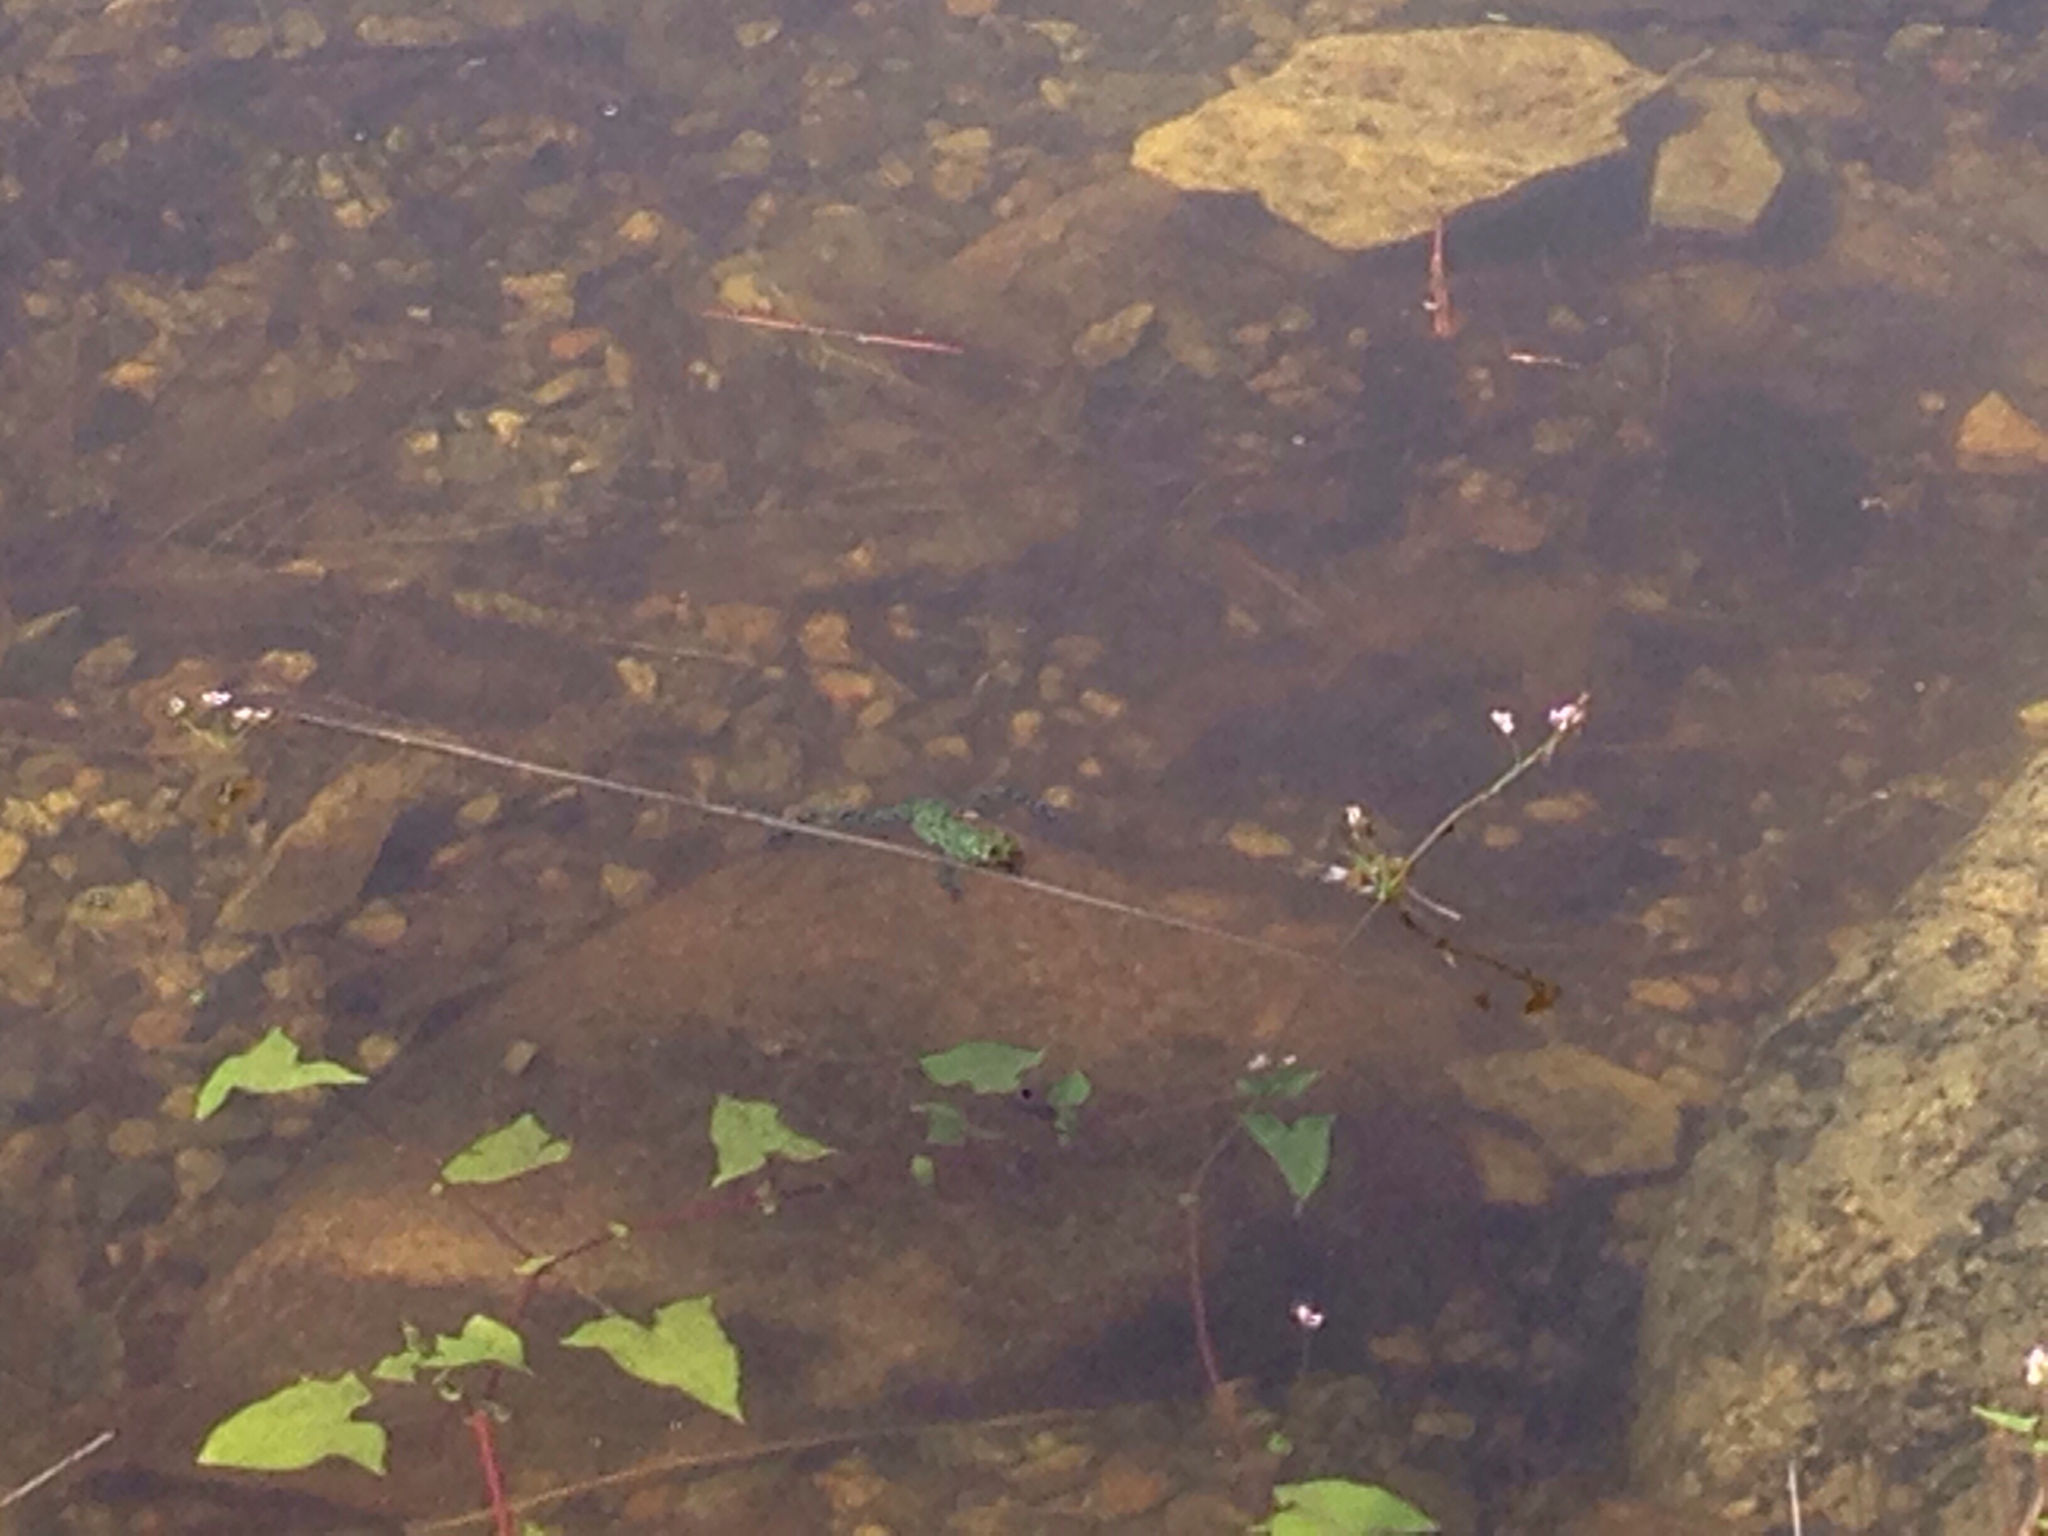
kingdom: Animalia
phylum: Chordata
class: Amphibia
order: Anura
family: Bombinatoridae
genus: Bombina
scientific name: Bombina orientalis
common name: Oriental firebelly toad
